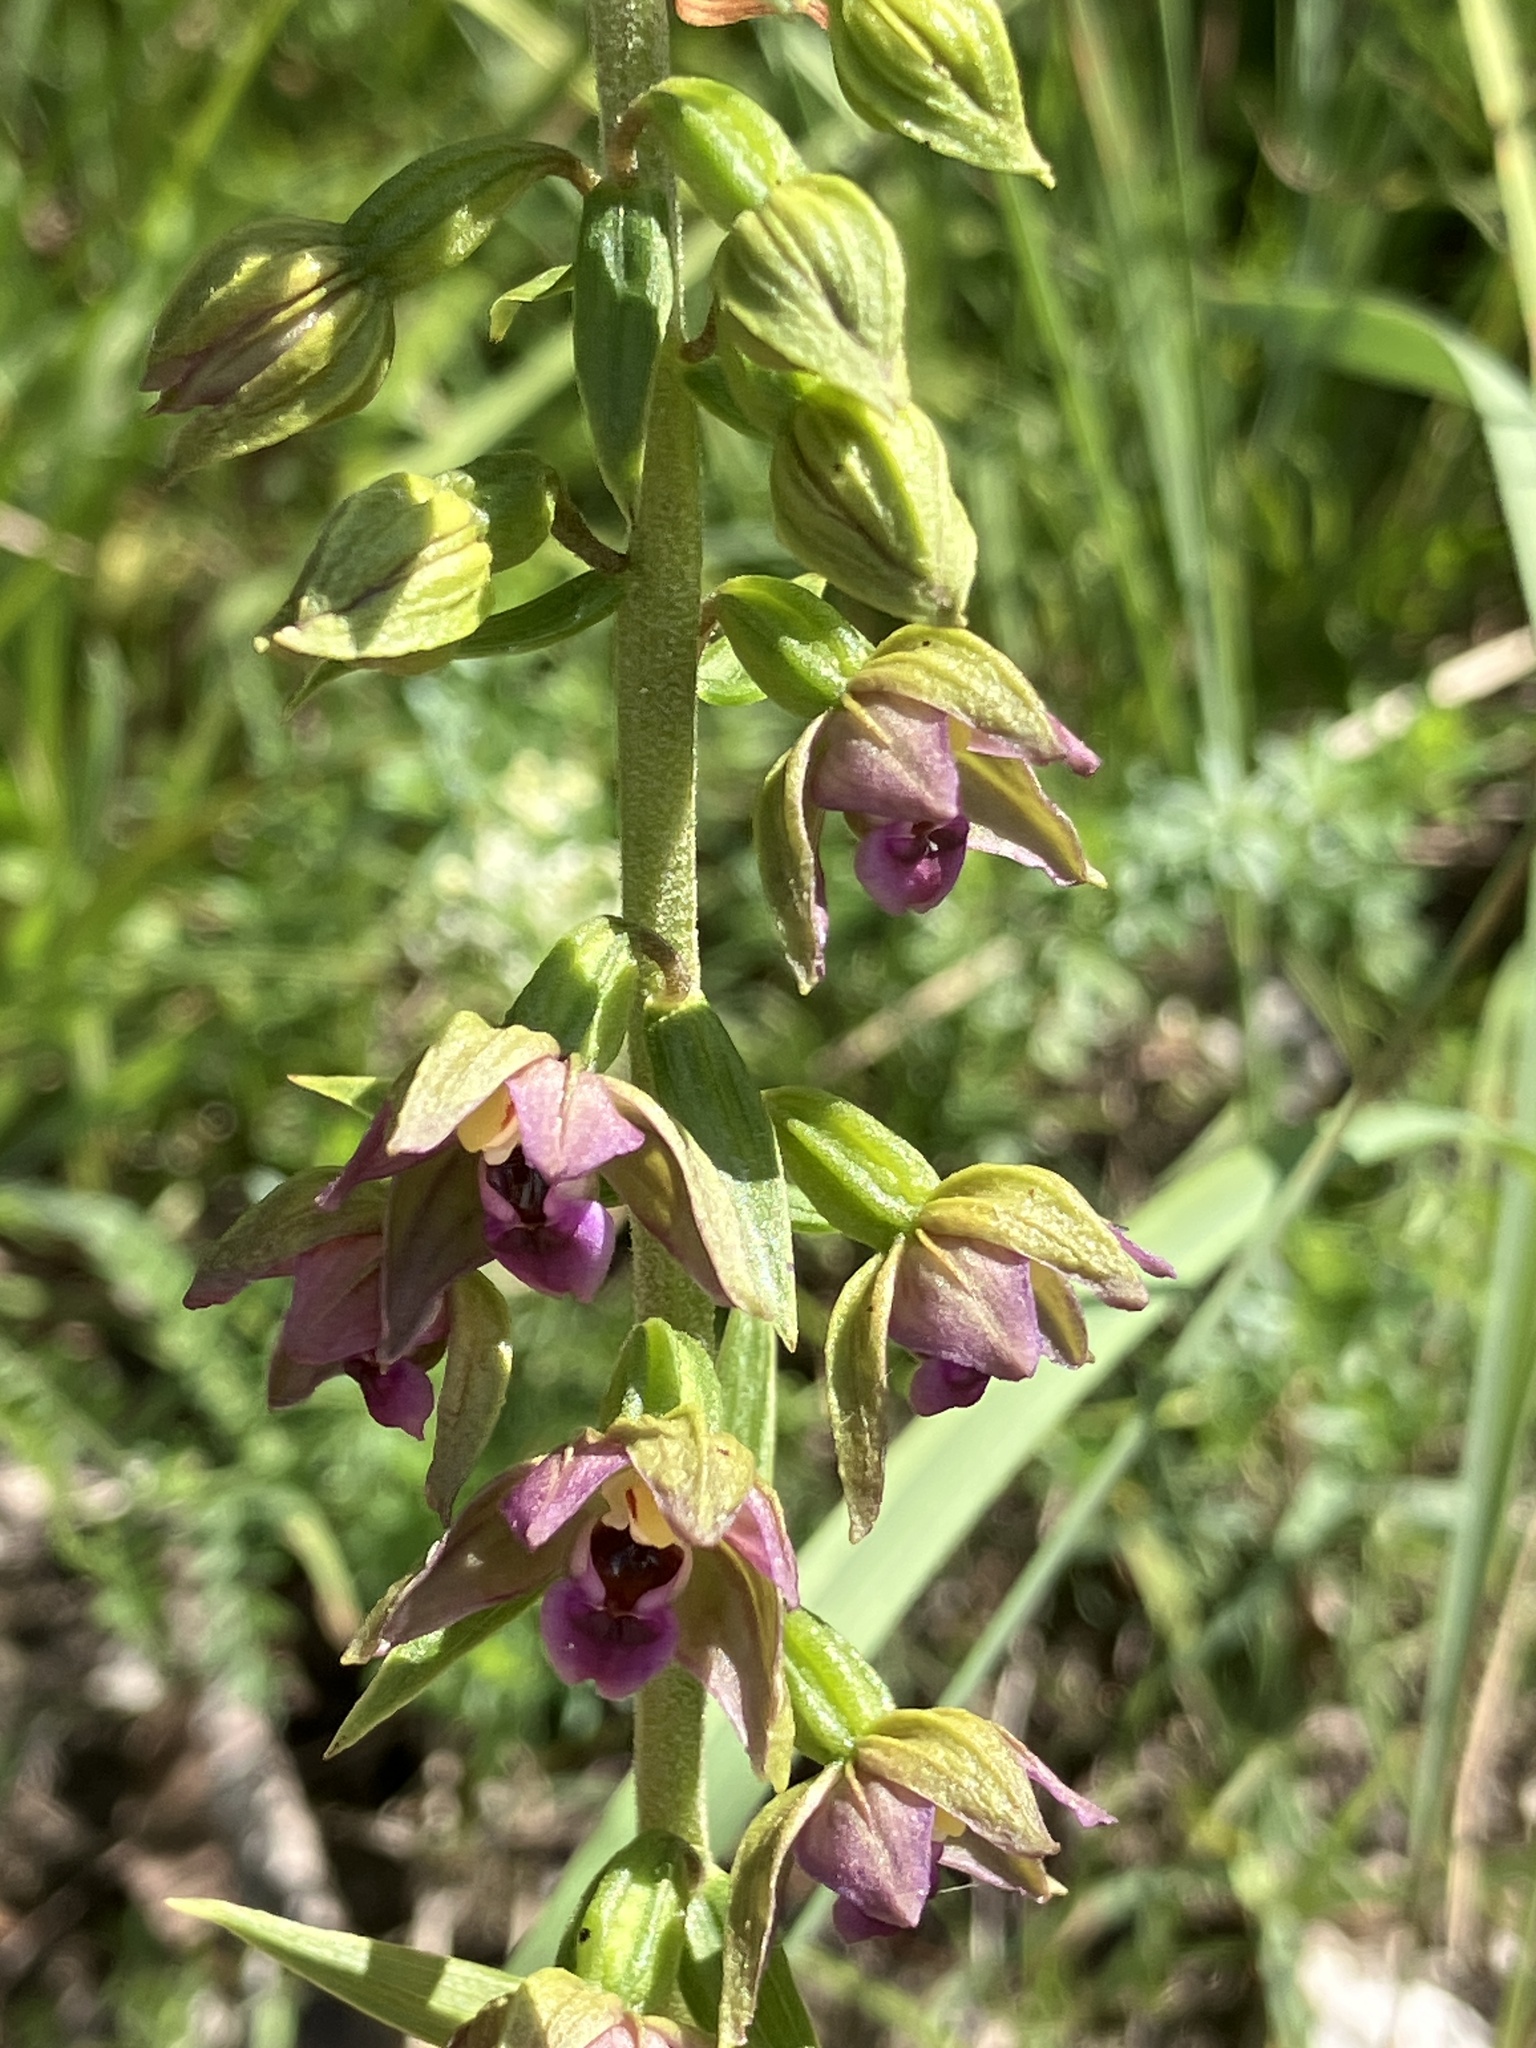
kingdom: Plantae
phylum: Tracheophyta
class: Liliopsida
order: Asparagales
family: Orchidaceae
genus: Epipactis
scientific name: Epipactis helleborine
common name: Broad-leaved helleborine
